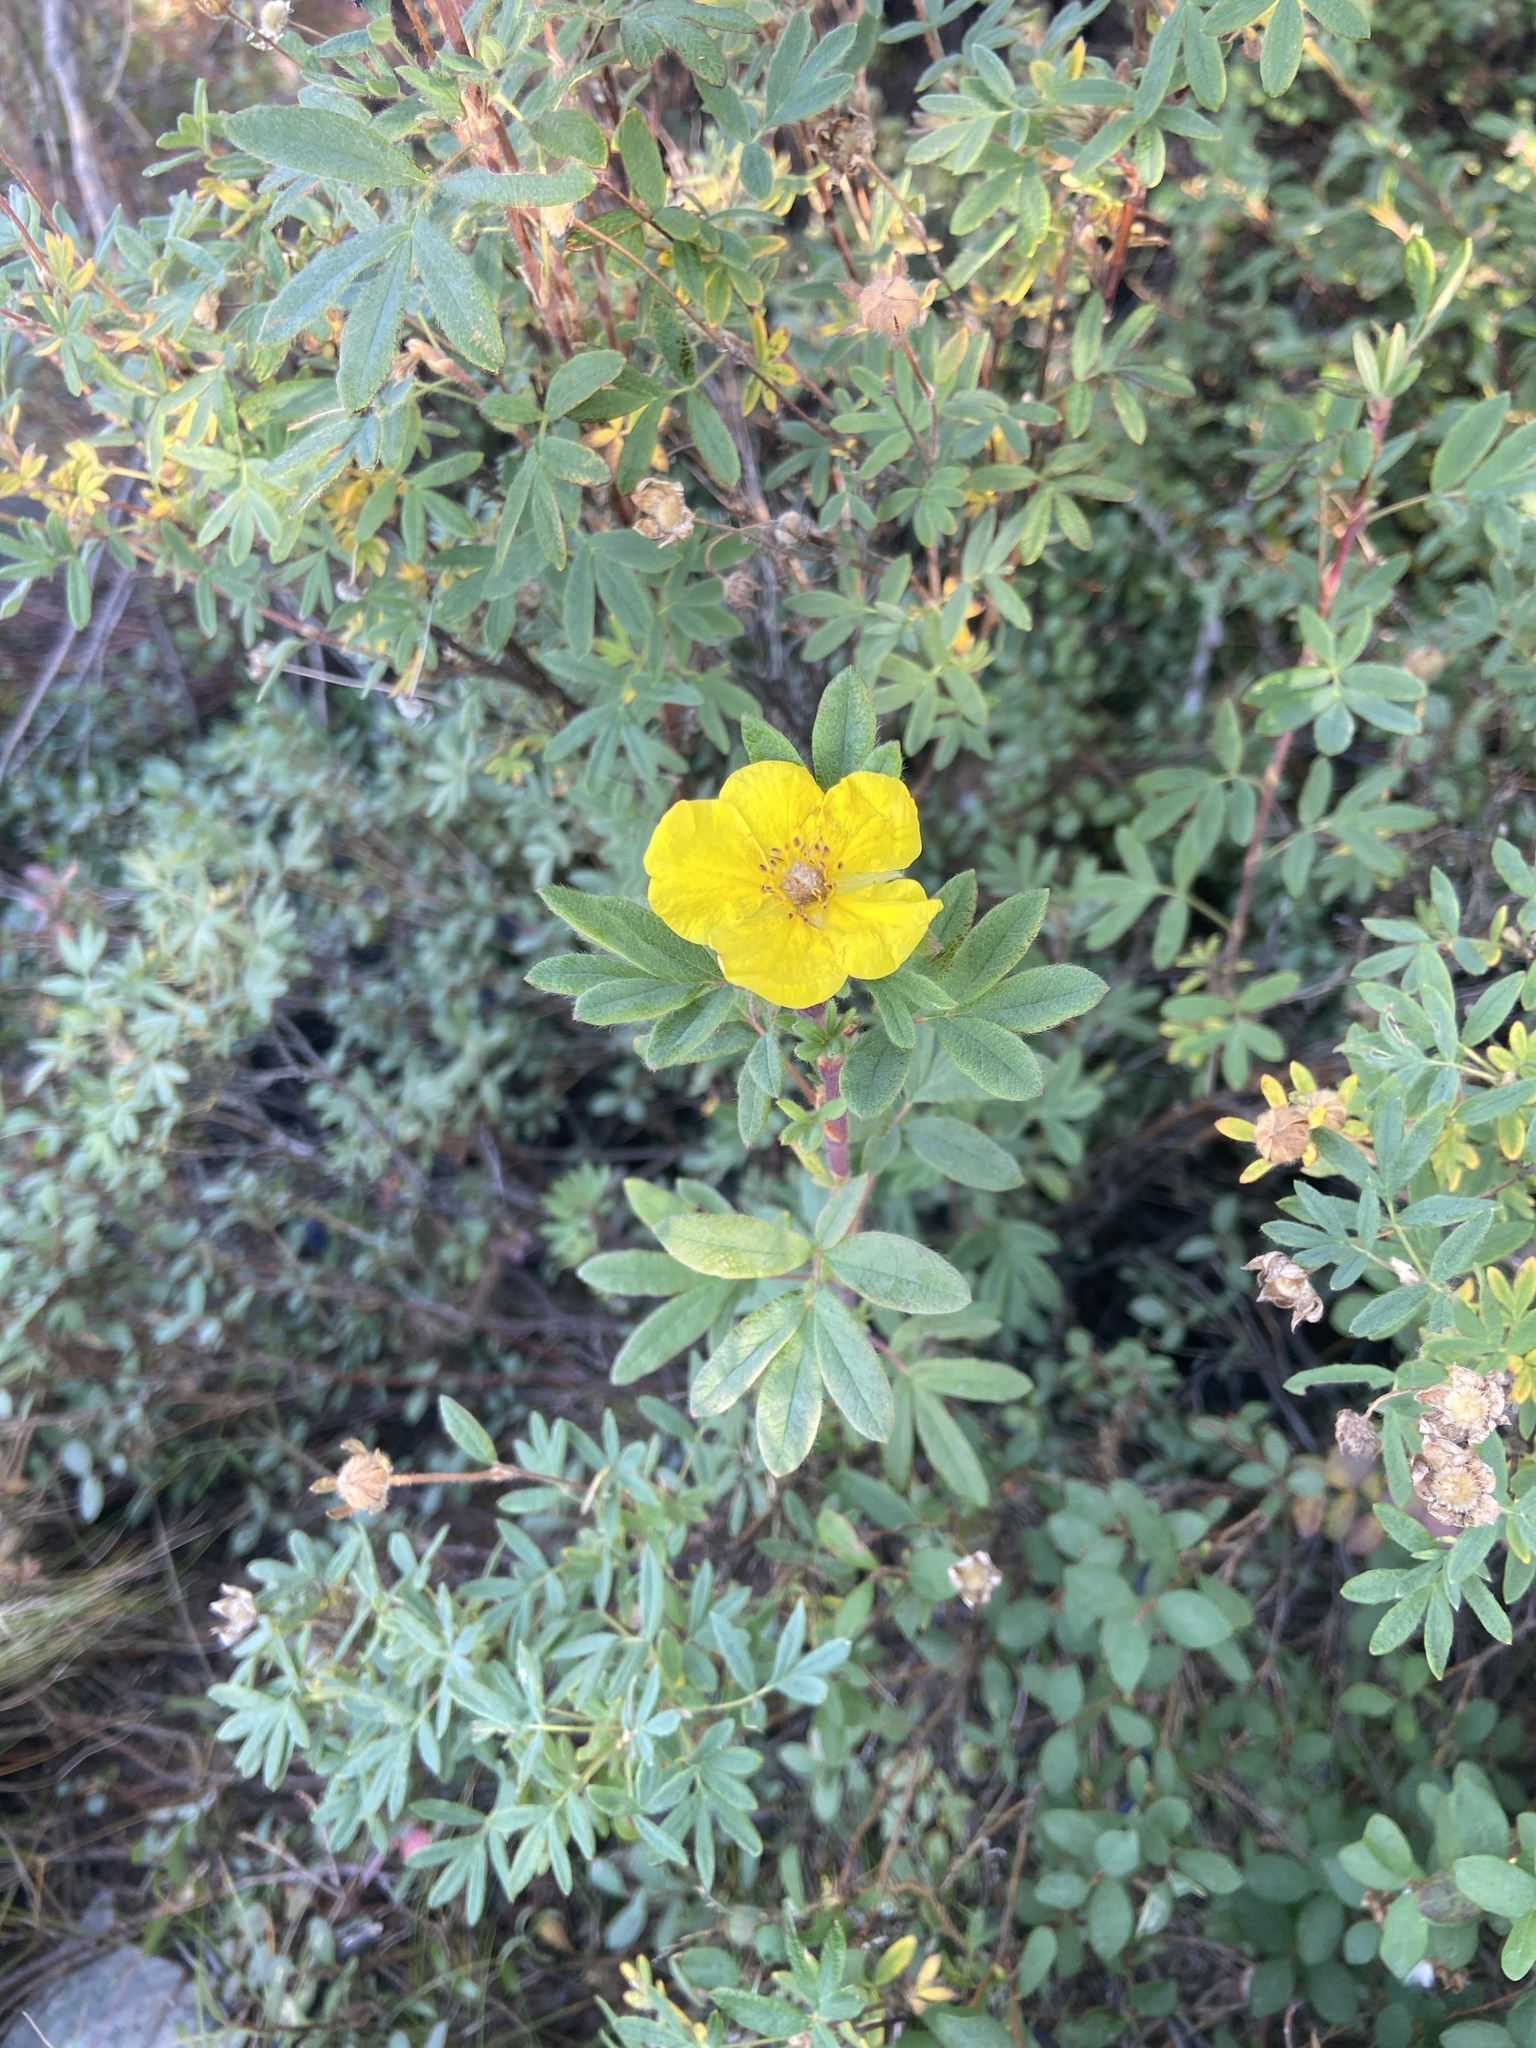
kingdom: Plantae
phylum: Tracheophyta
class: Magnoliopsida
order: Rosales
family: Rosaceae
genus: Dasiphora
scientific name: Dasiphora fruticosa
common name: Shrubby cinquefoil
